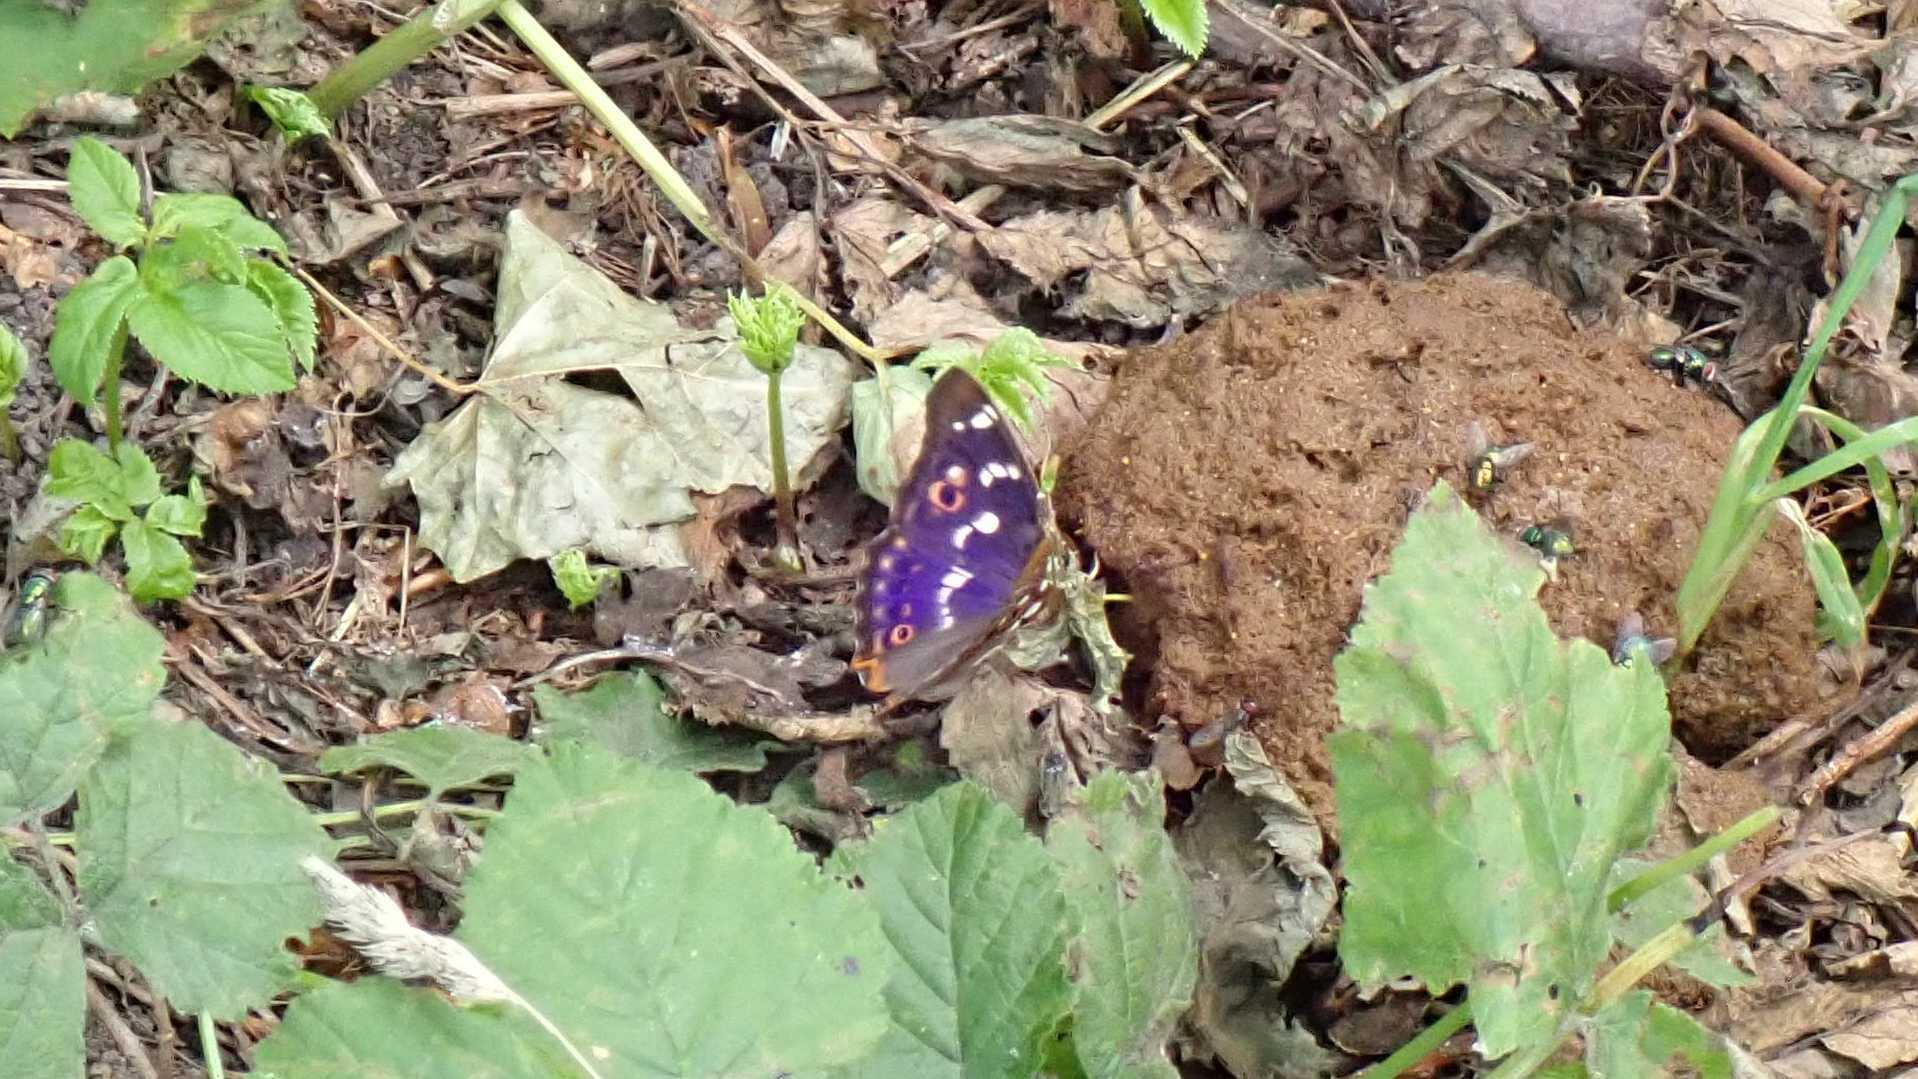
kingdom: Animalia
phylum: Arthropoda
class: Insecta
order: Lepidoptera
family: Nymphalidae
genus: Apatura
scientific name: Apatura ilia
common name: Lesser purple emperor
